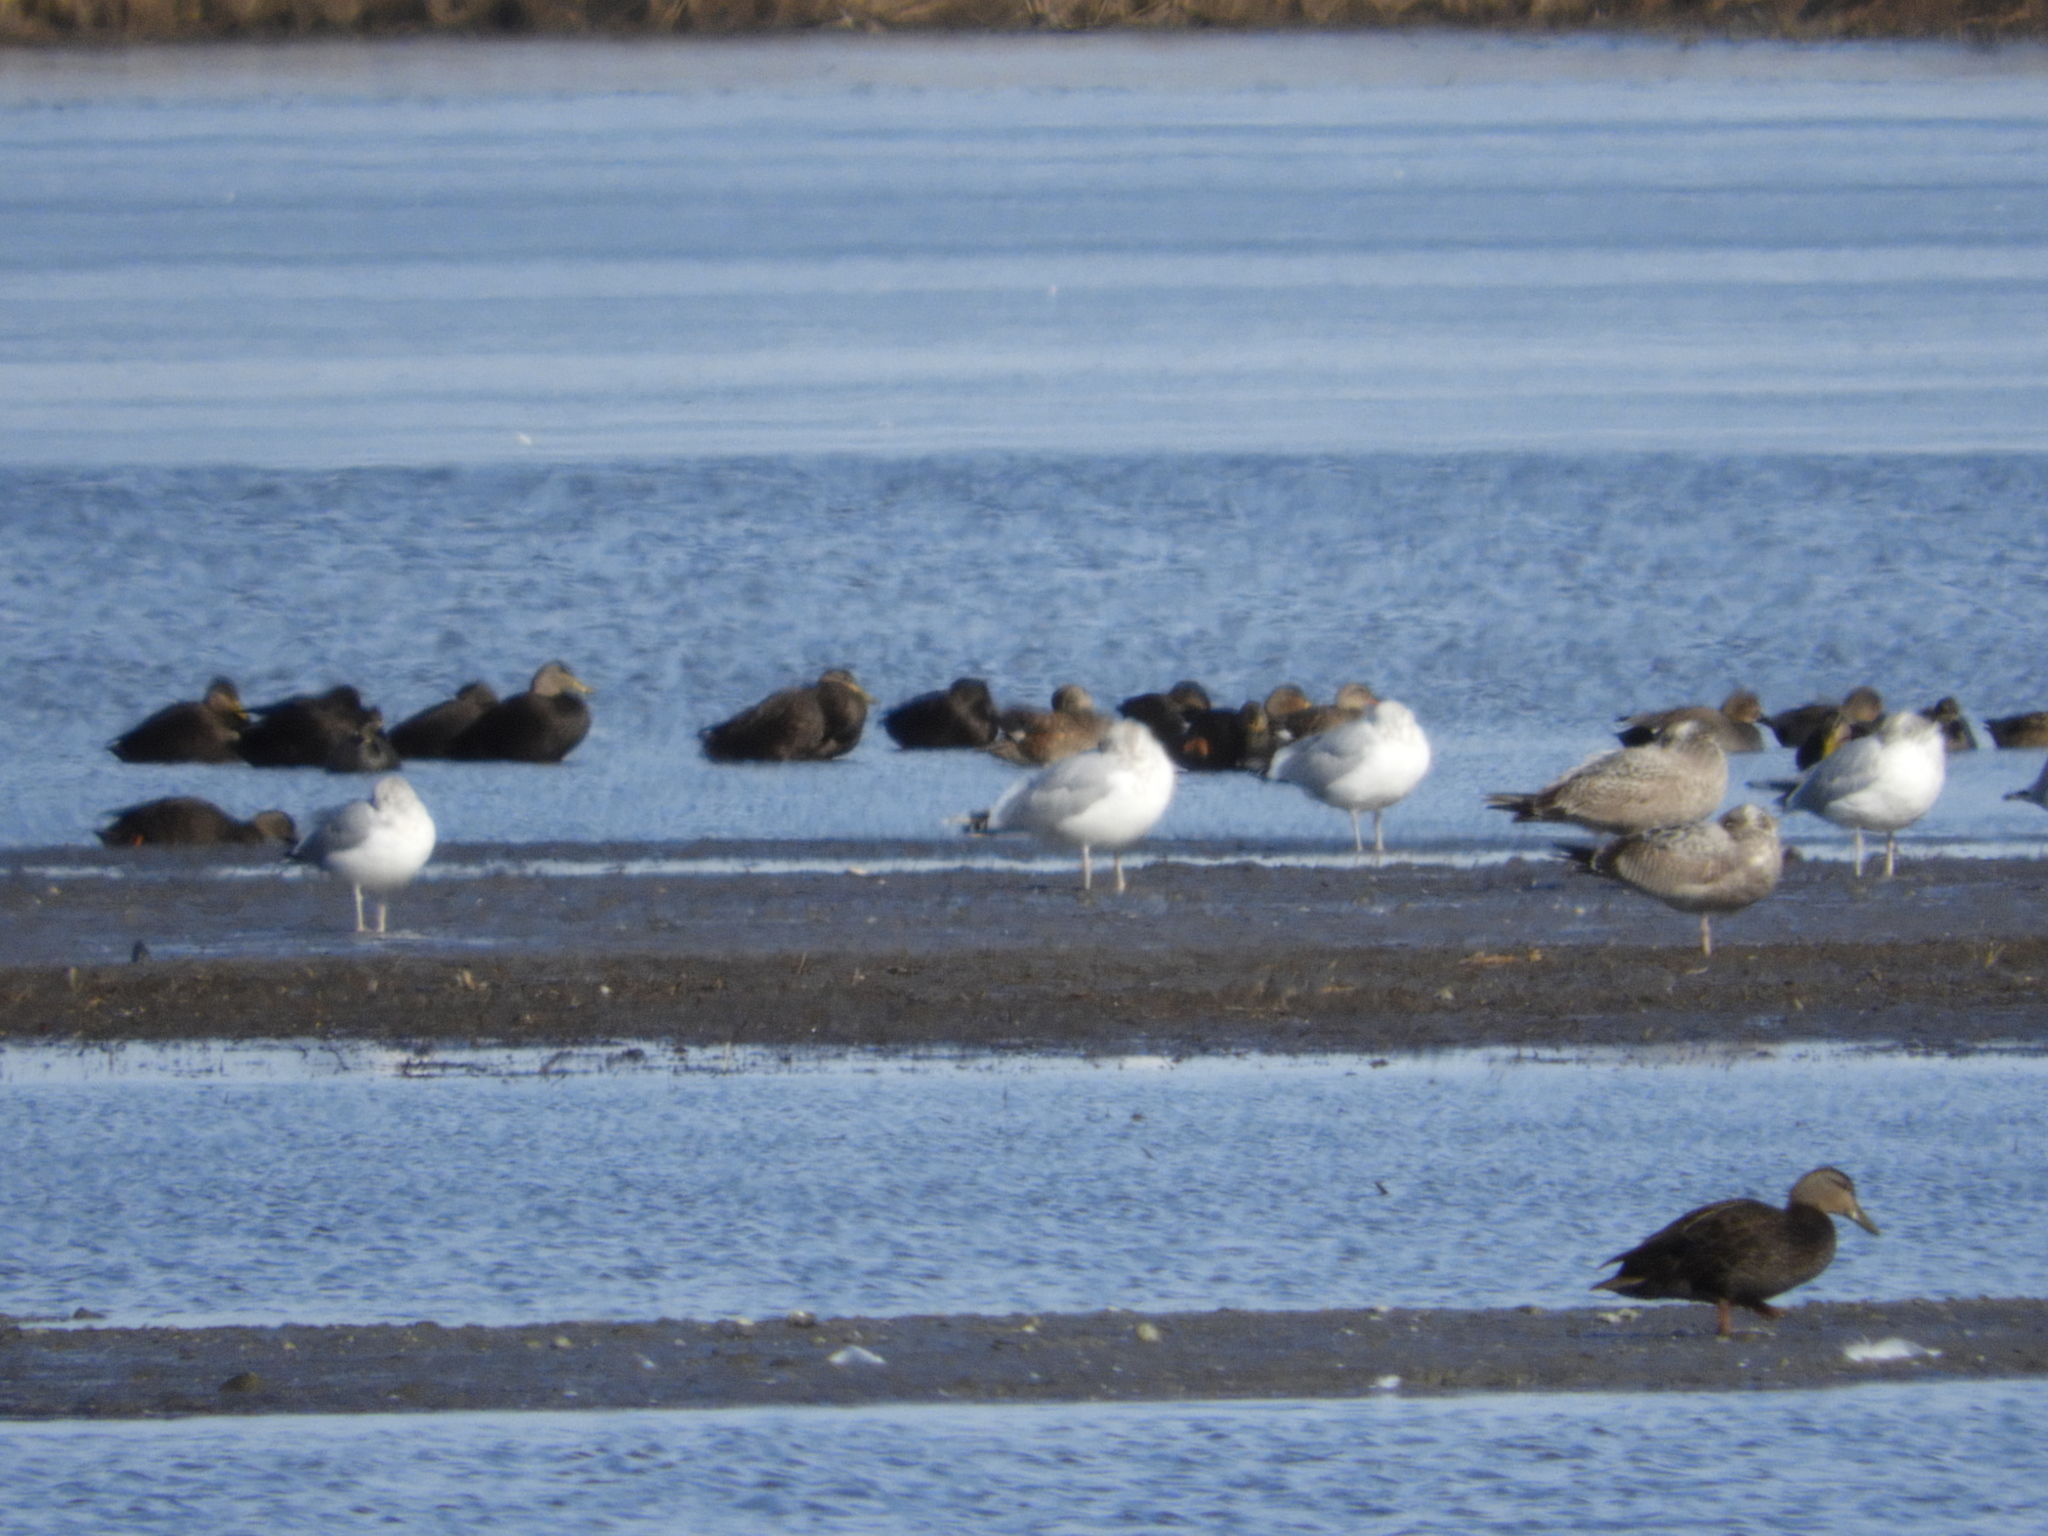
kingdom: Animalia
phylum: Chordata
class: Aves
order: Anseriformes
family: Anatidae
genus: Anas
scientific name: Anas rubripes
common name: American black duck
